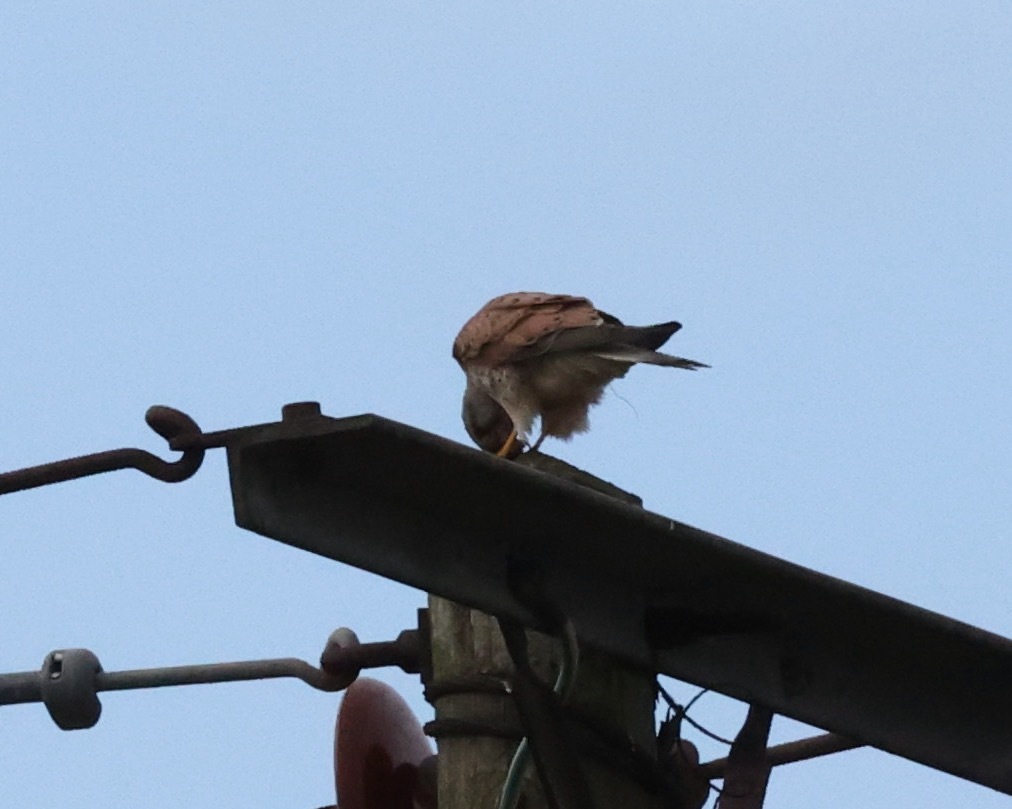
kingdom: Animalia
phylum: Chordata
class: Aves
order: Falconiformes
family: Falconidae
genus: Falco
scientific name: Falco tinnunculus
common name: Common kestrel
